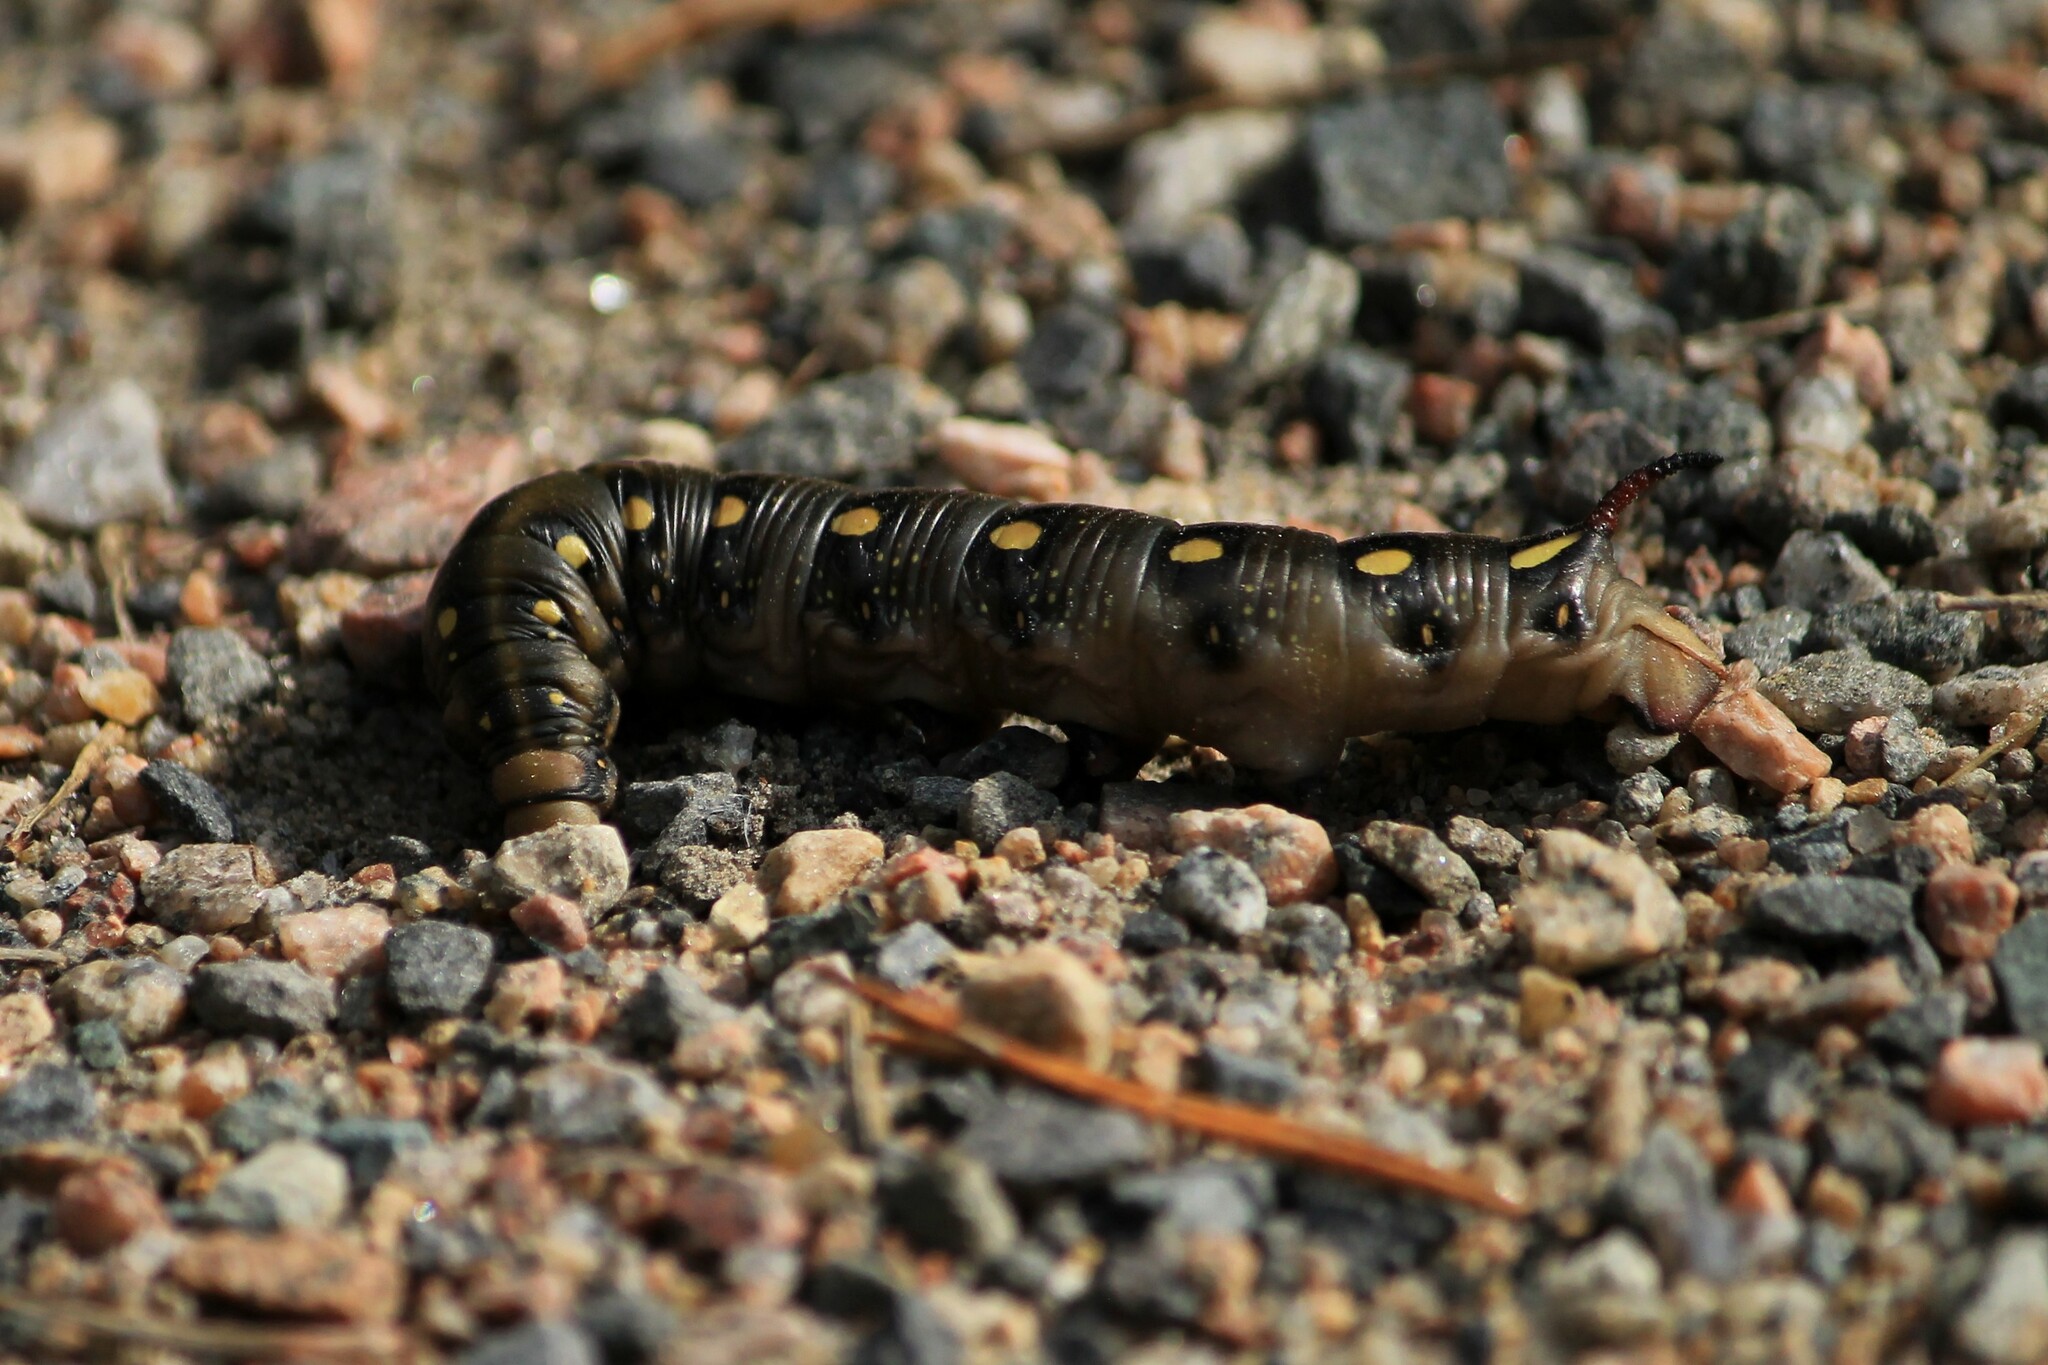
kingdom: Animalia
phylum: Arthropoda
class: Insecta
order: Lepidoptera
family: Sphingidae
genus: Hyles
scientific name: Hyles gallii
